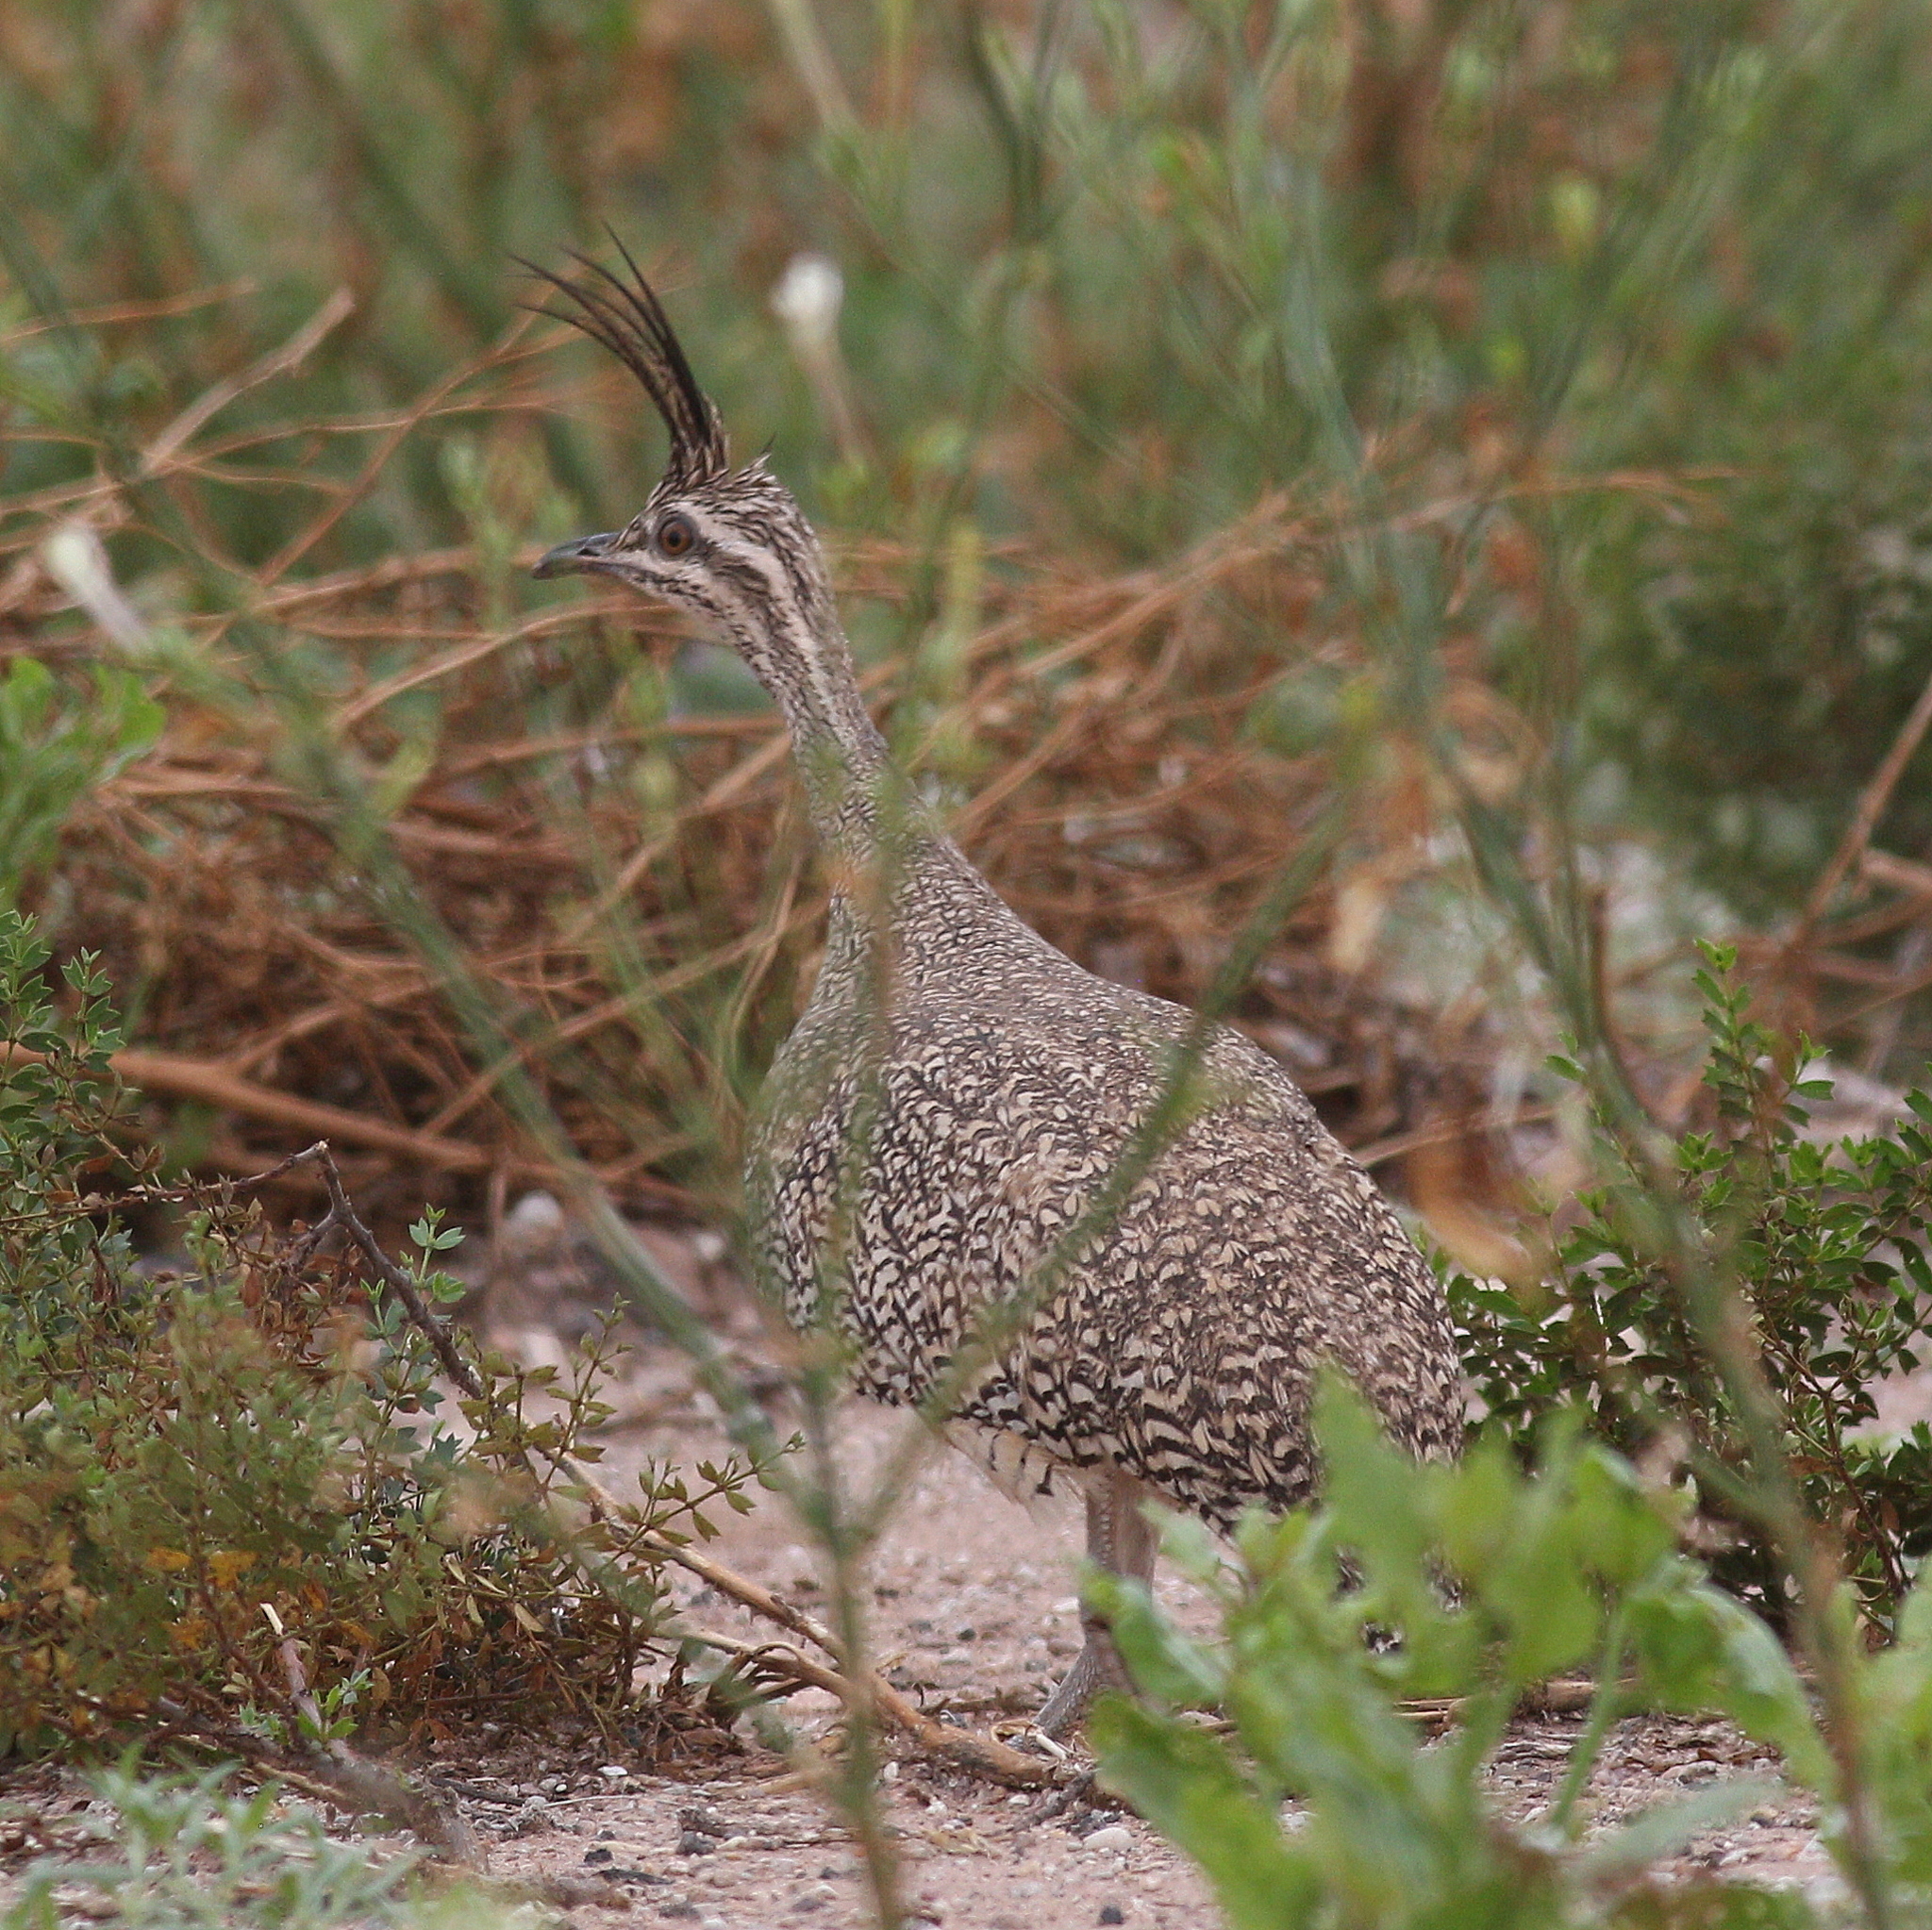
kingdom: Animalia
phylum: Chordata
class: Aves
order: Tinamiformes
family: Tinamidae
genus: Eudromia
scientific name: Eudromia elegans
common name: Elegant crested tinamou
